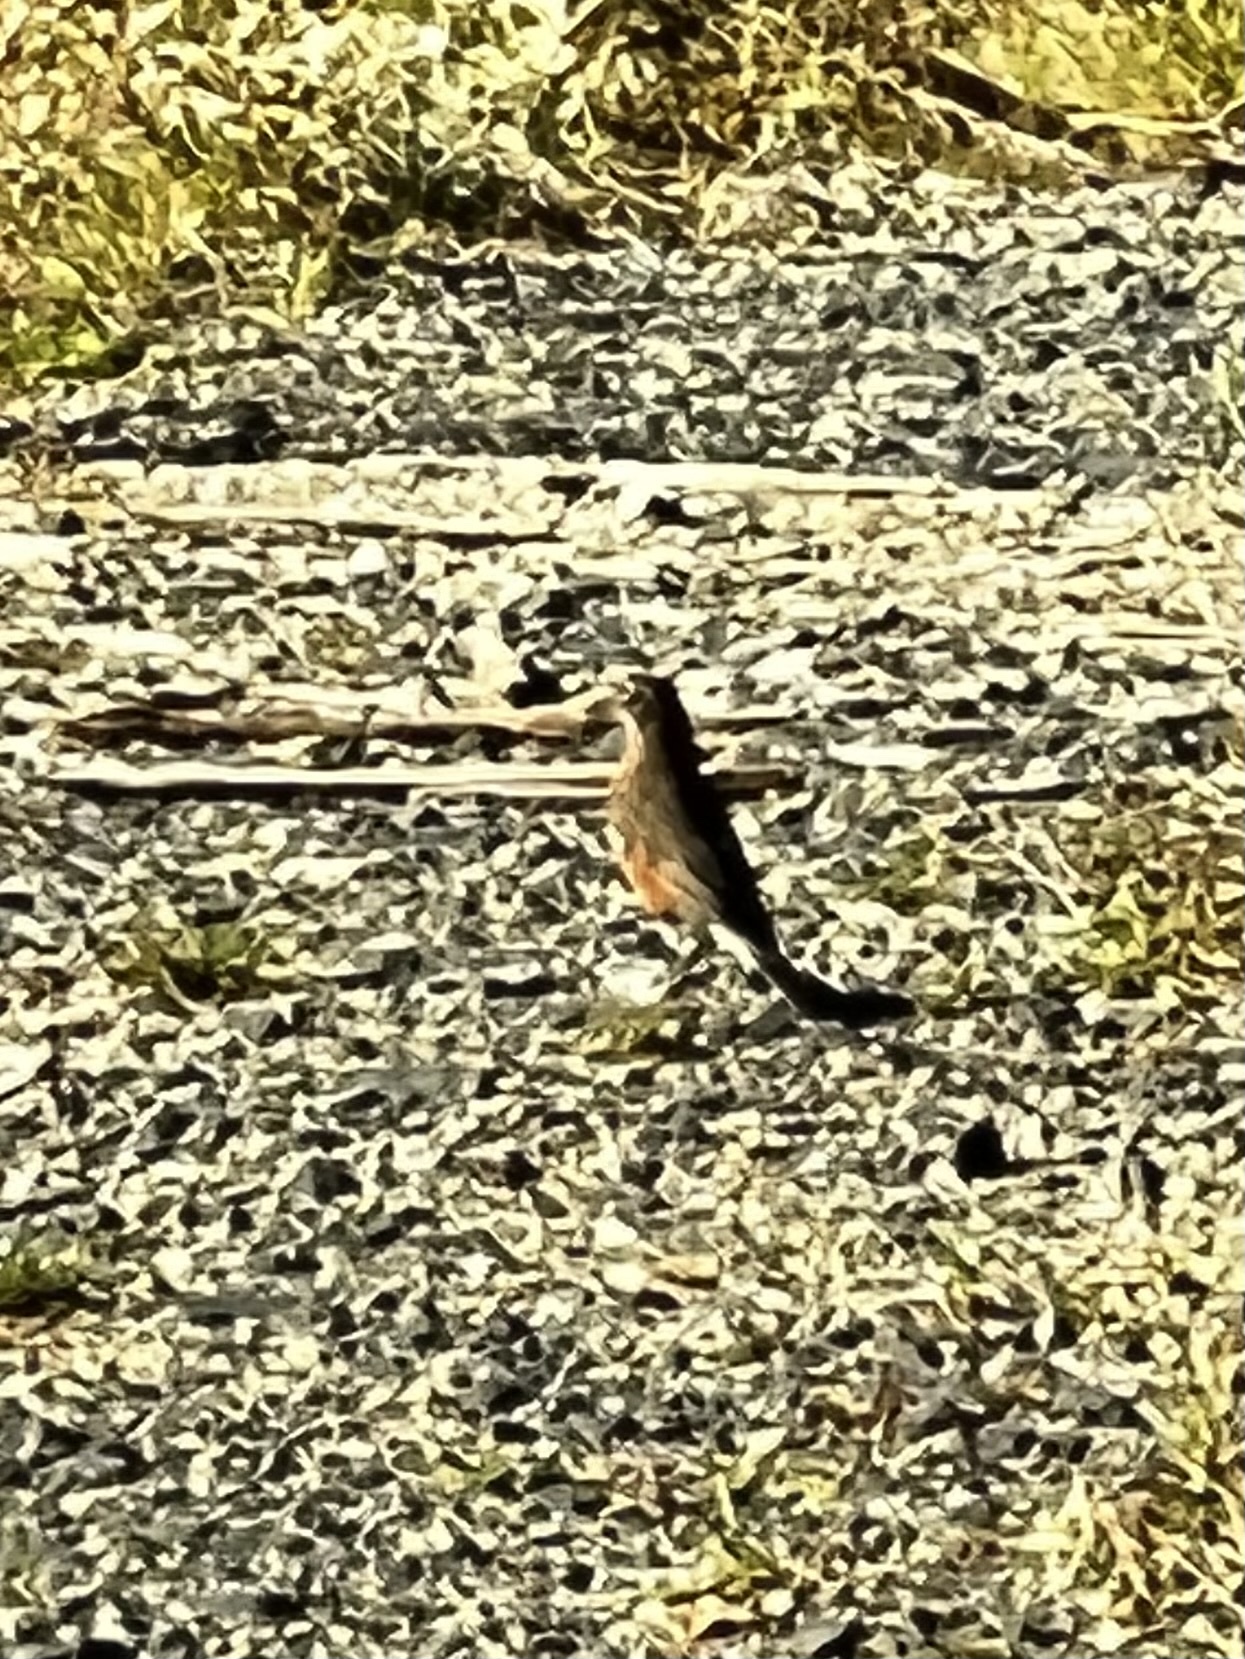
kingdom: Animalia
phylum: Chordata
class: Aves
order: Passeriformes
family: Turdidae
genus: Turdus
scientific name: Turdus migratorius
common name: American robin
